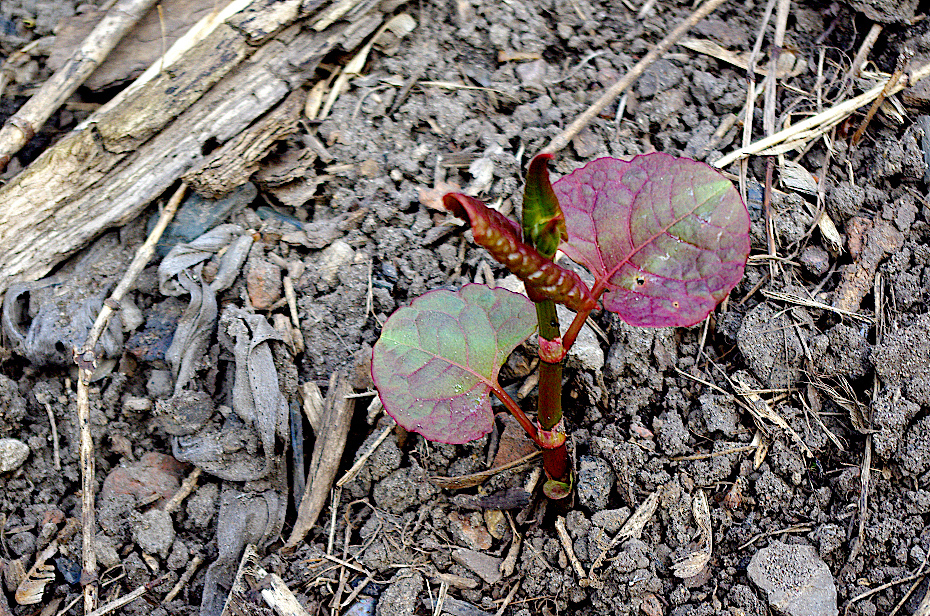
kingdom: Plantae
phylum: Tracheophyta
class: Magnoliopsida
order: Caryophyllales
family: Polygonaceae
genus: Reynoutria
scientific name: Reynoutria bohemica
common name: Bohemian knotweed
